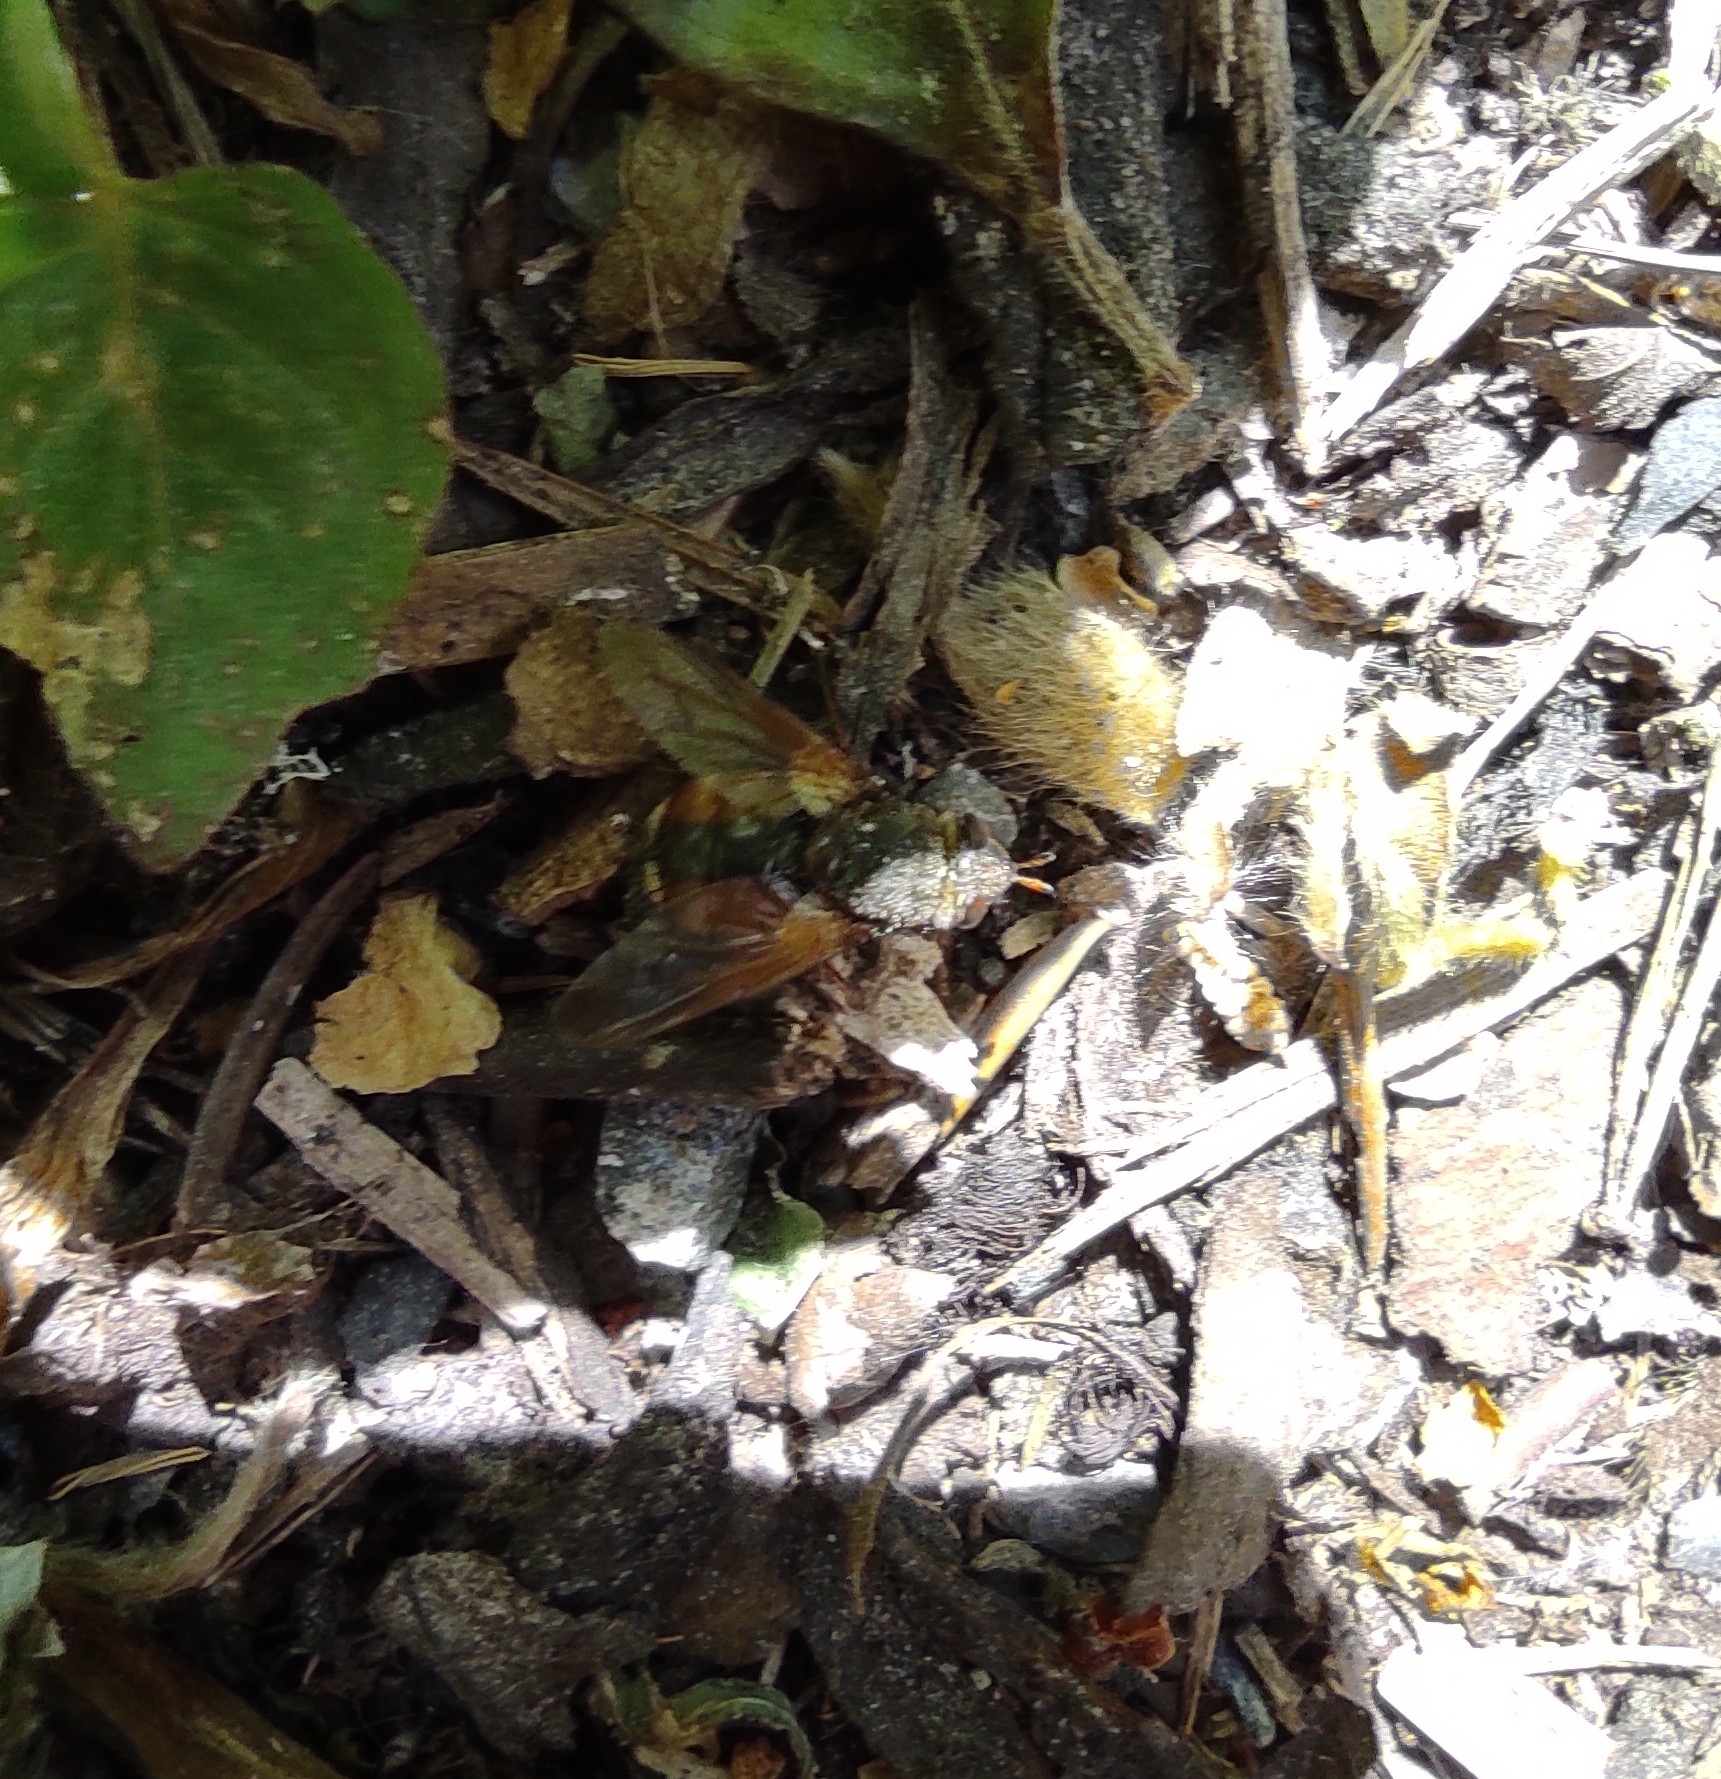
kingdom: Animalia
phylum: Arthropoda
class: Insecta
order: Diptera
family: Tachinidae
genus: Tachina
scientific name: Tachina fera
